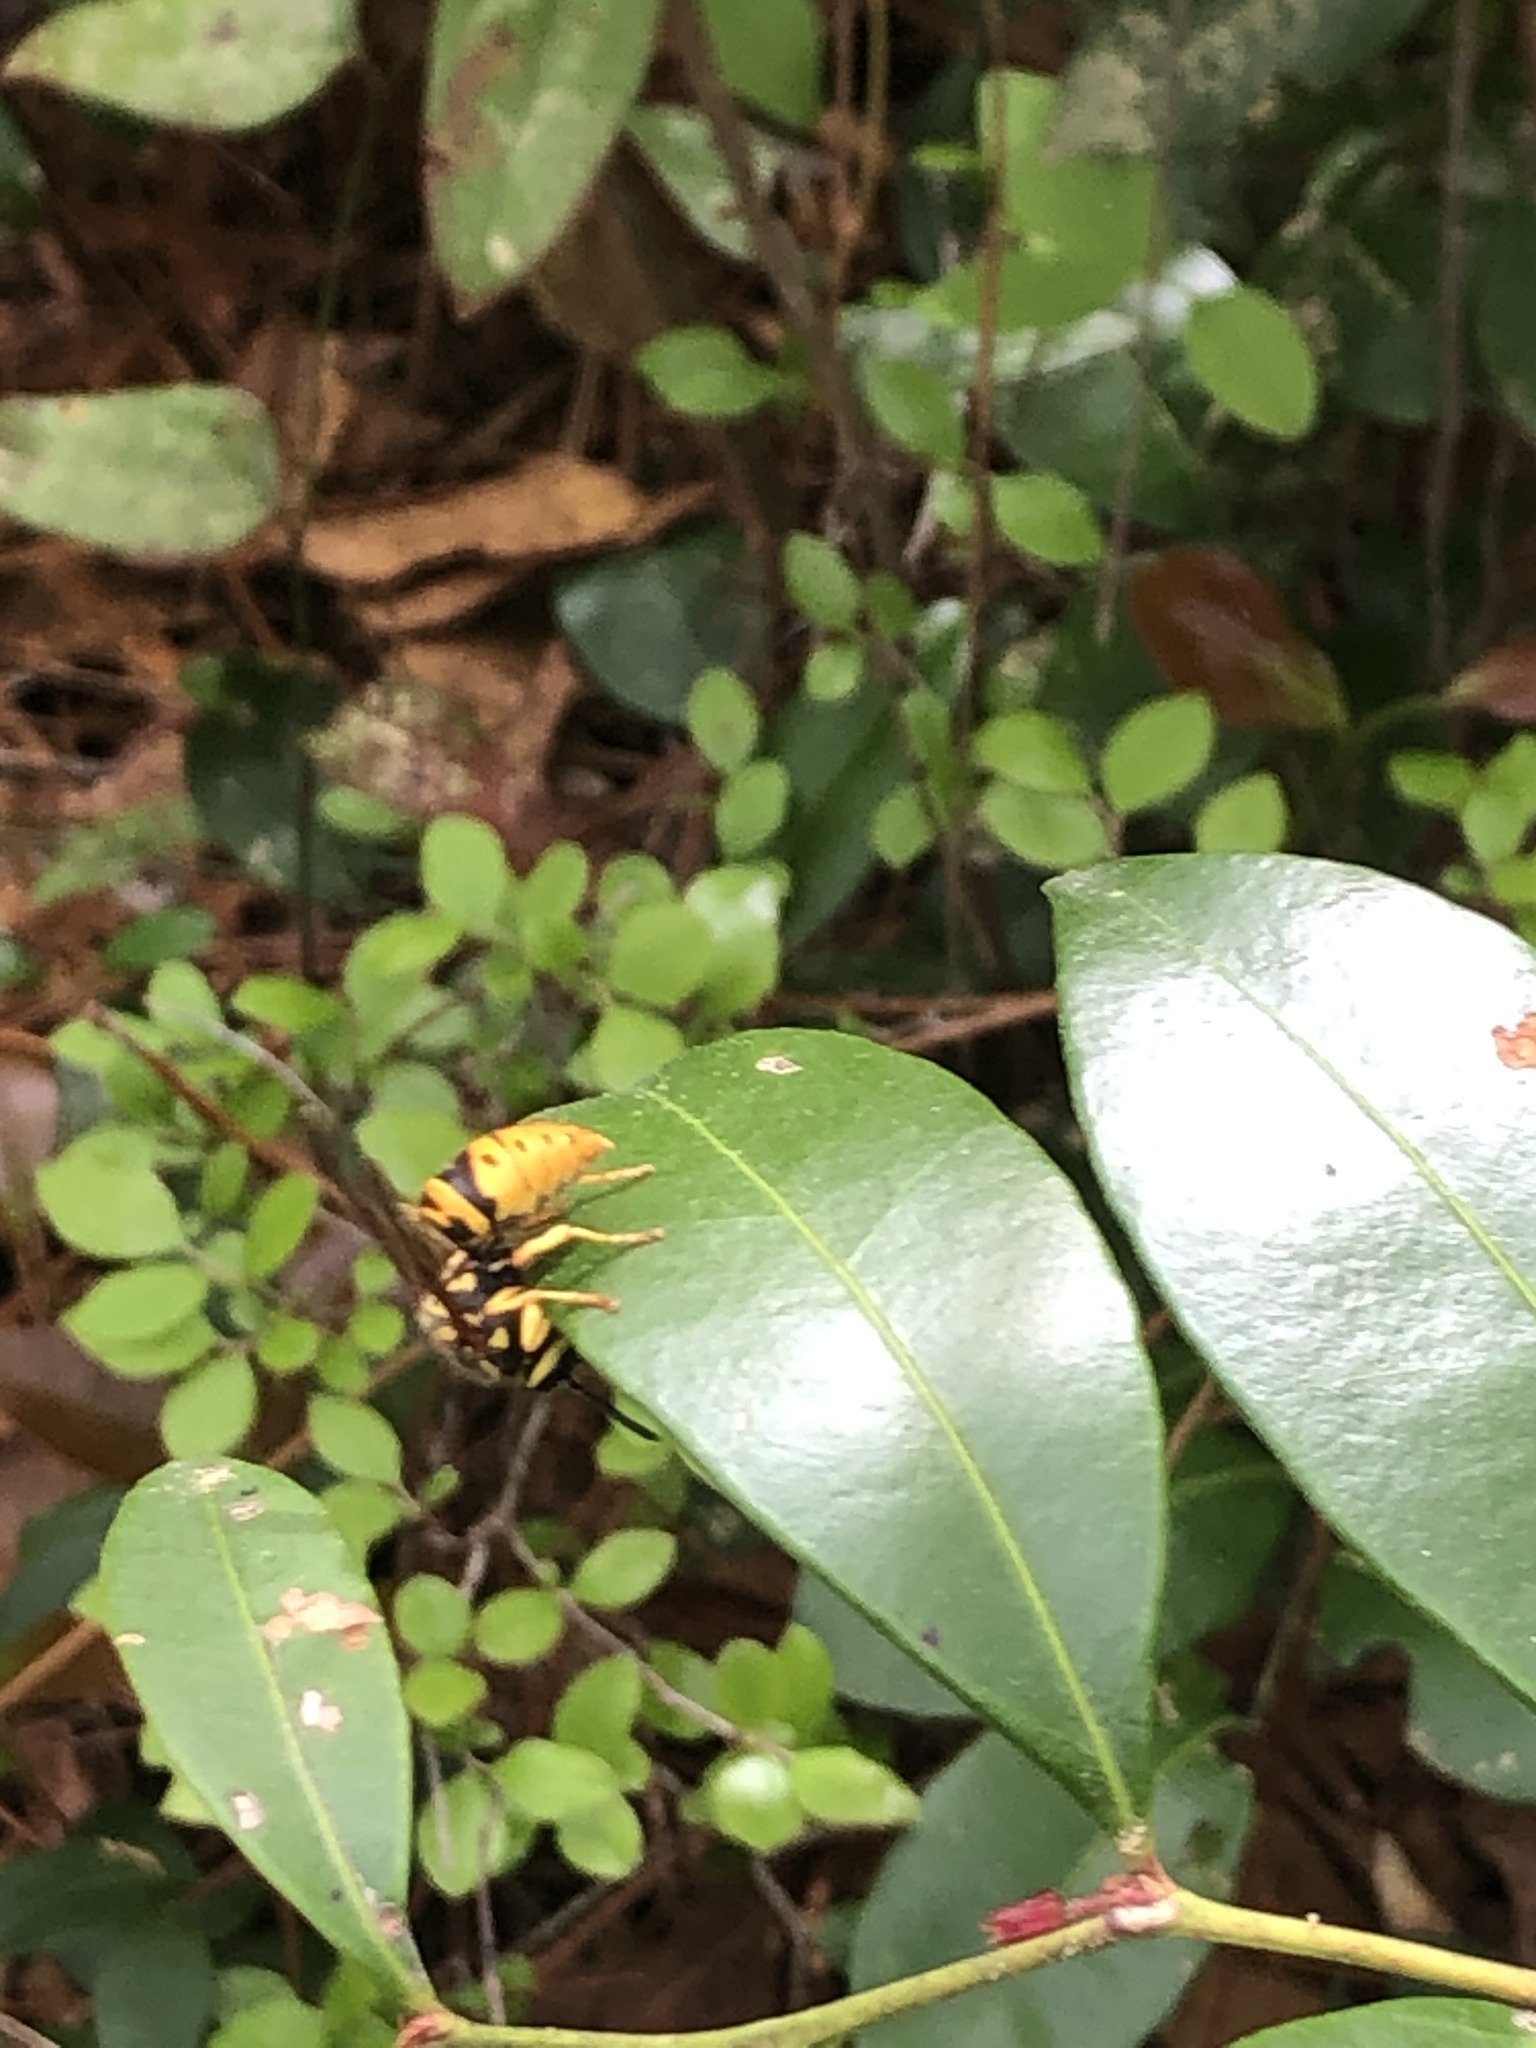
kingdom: Animalia
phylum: Arthropoda
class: Insecta
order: Hymenoptera
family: Vespidae
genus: Vespula
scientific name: Vespula maculifrons
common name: Eastern yellowjacket
